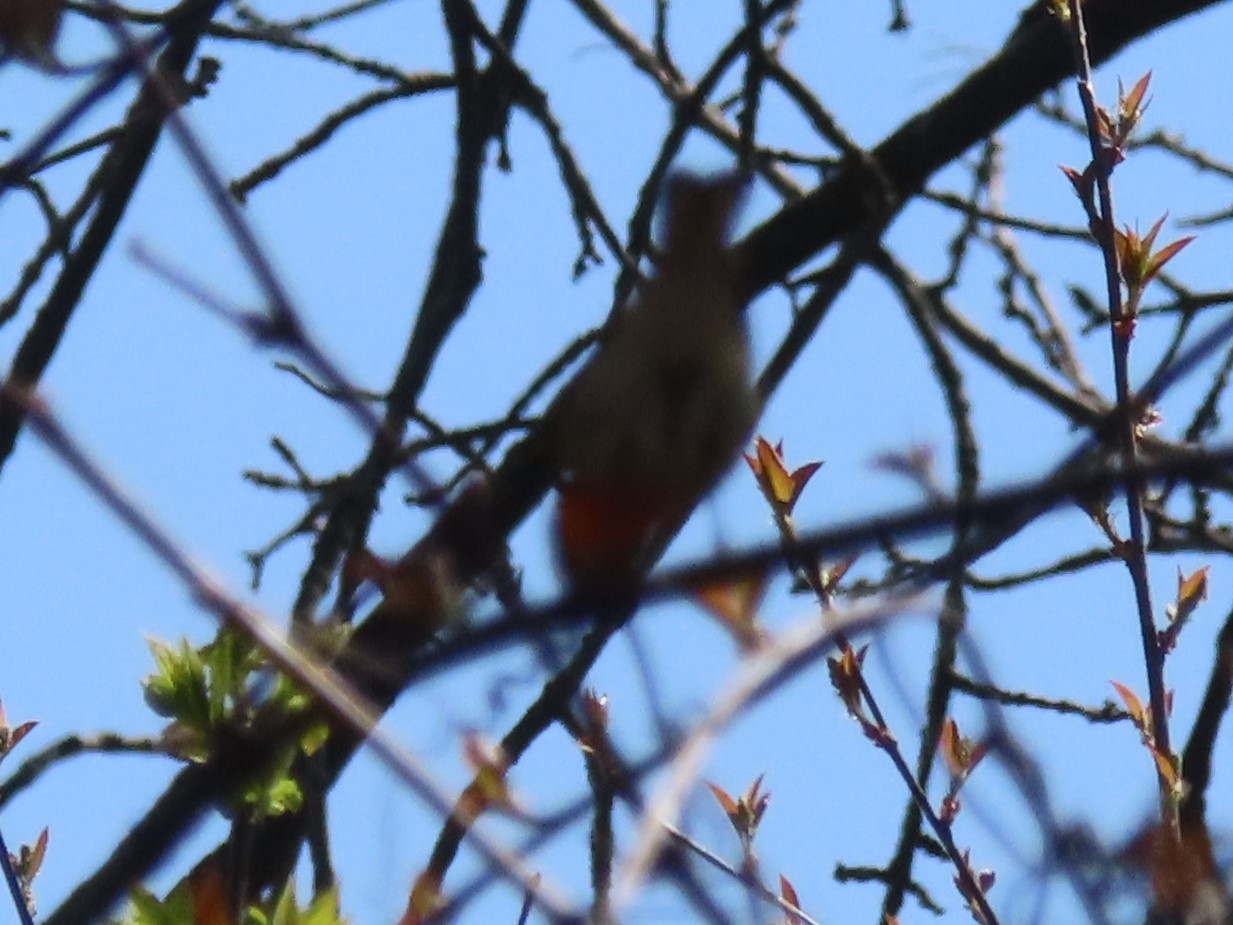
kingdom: Animalia
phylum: Chordata
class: Aves
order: Passeriformes
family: Parulidae
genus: Setophaga
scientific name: Setophaga fusca
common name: Blackburnian warbler
